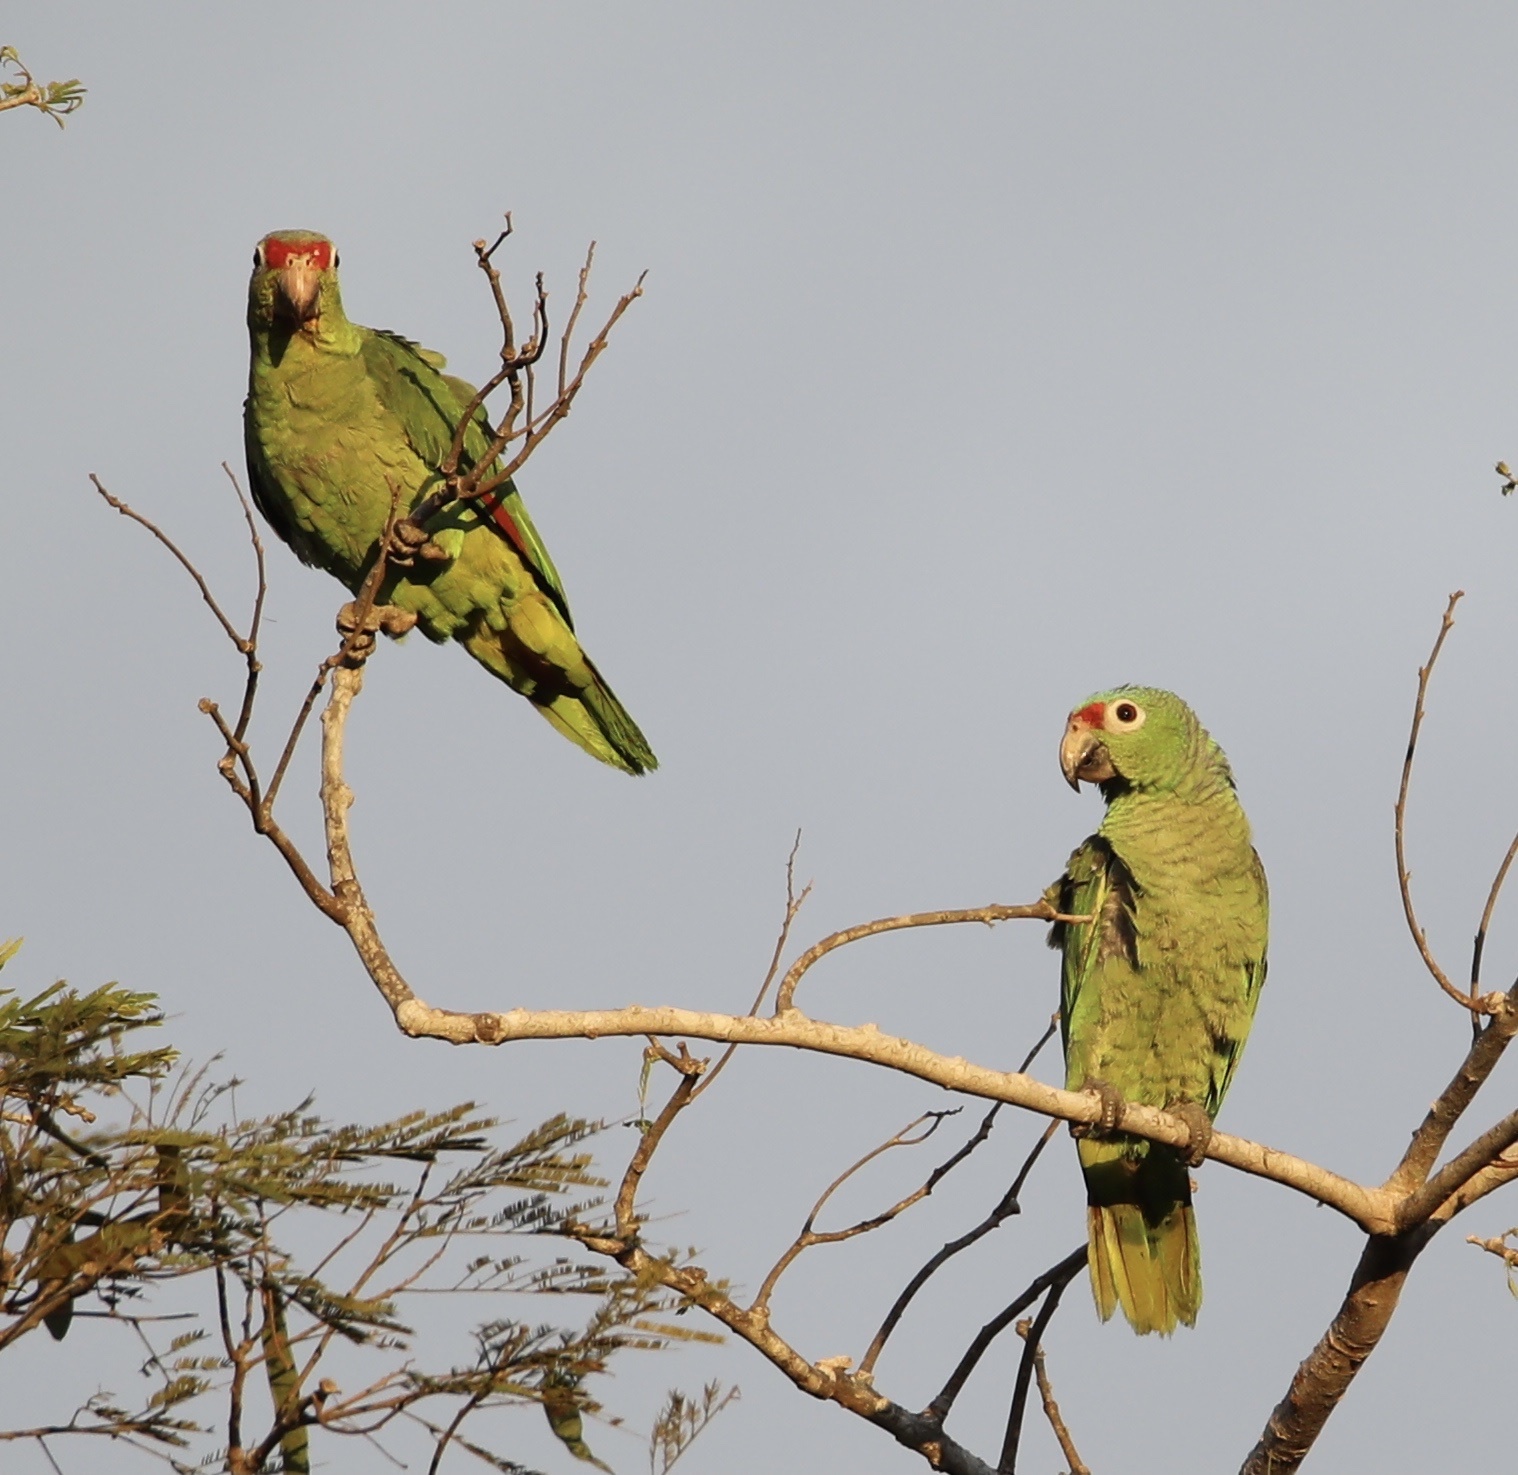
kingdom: Animalia
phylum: Chordata
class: Aves
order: Psittaciformes
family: Psittacidae
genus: Amazona
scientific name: Amazona autumnalis
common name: Red-lored amazon
